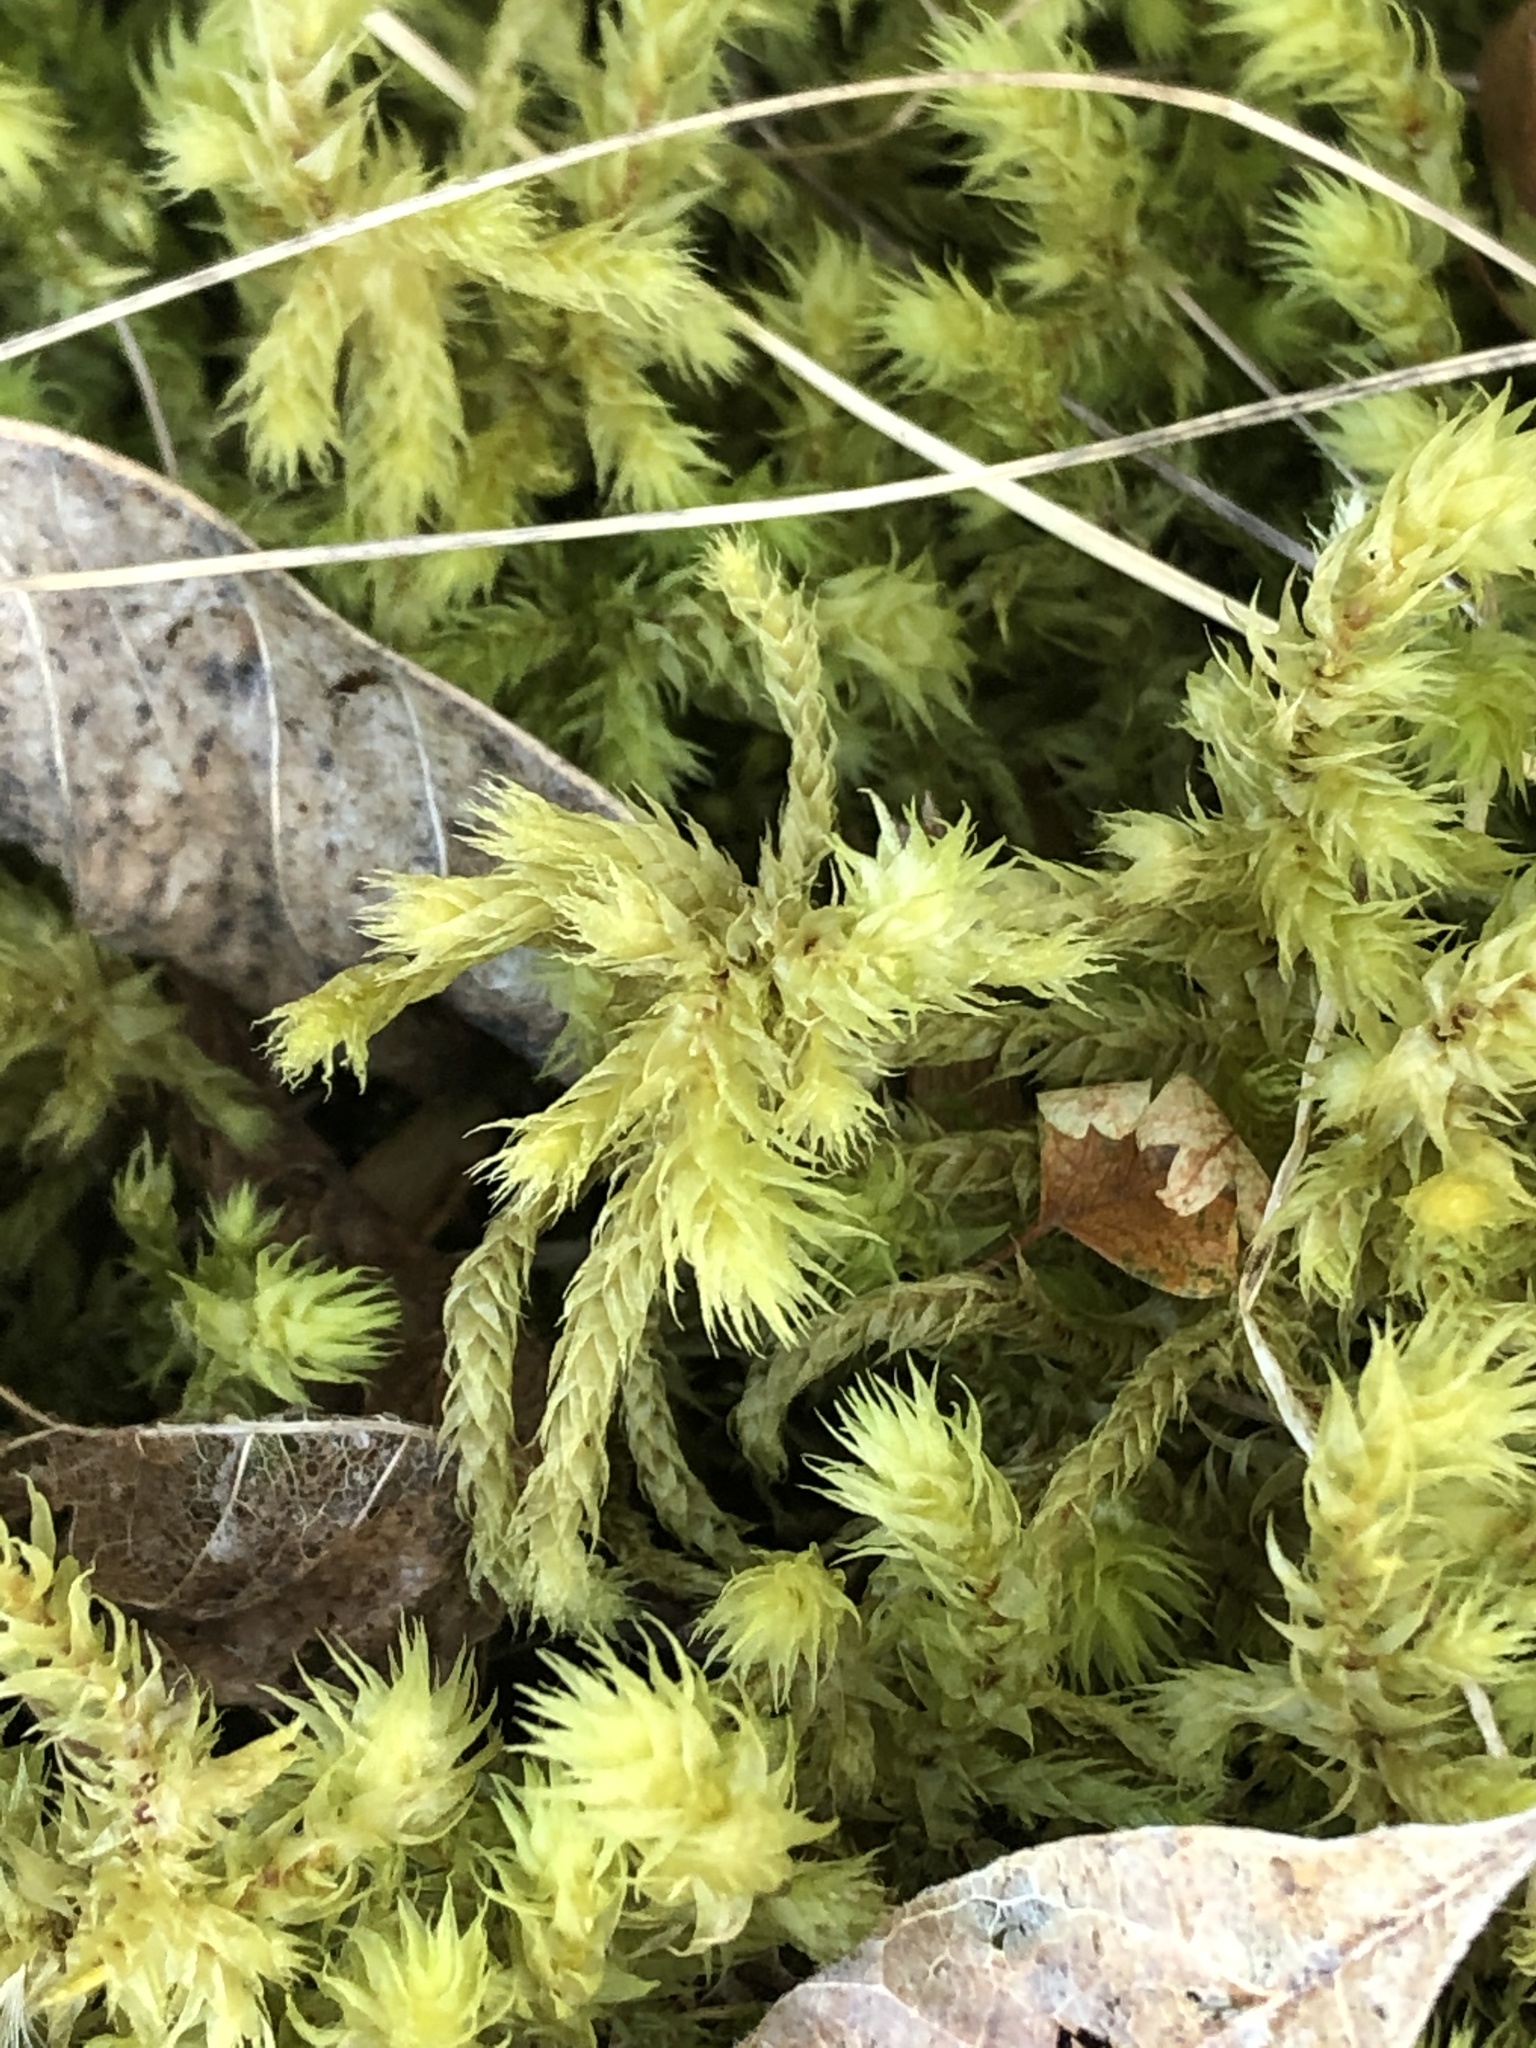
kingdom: Plantae
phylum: Bryophyta
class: Bryopsida
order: Hypnales
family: Hylocomiaceae
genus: Hylocomiadelphus
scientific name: Hylocomiadelphus triquetrus
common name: Rough goose neck moss
